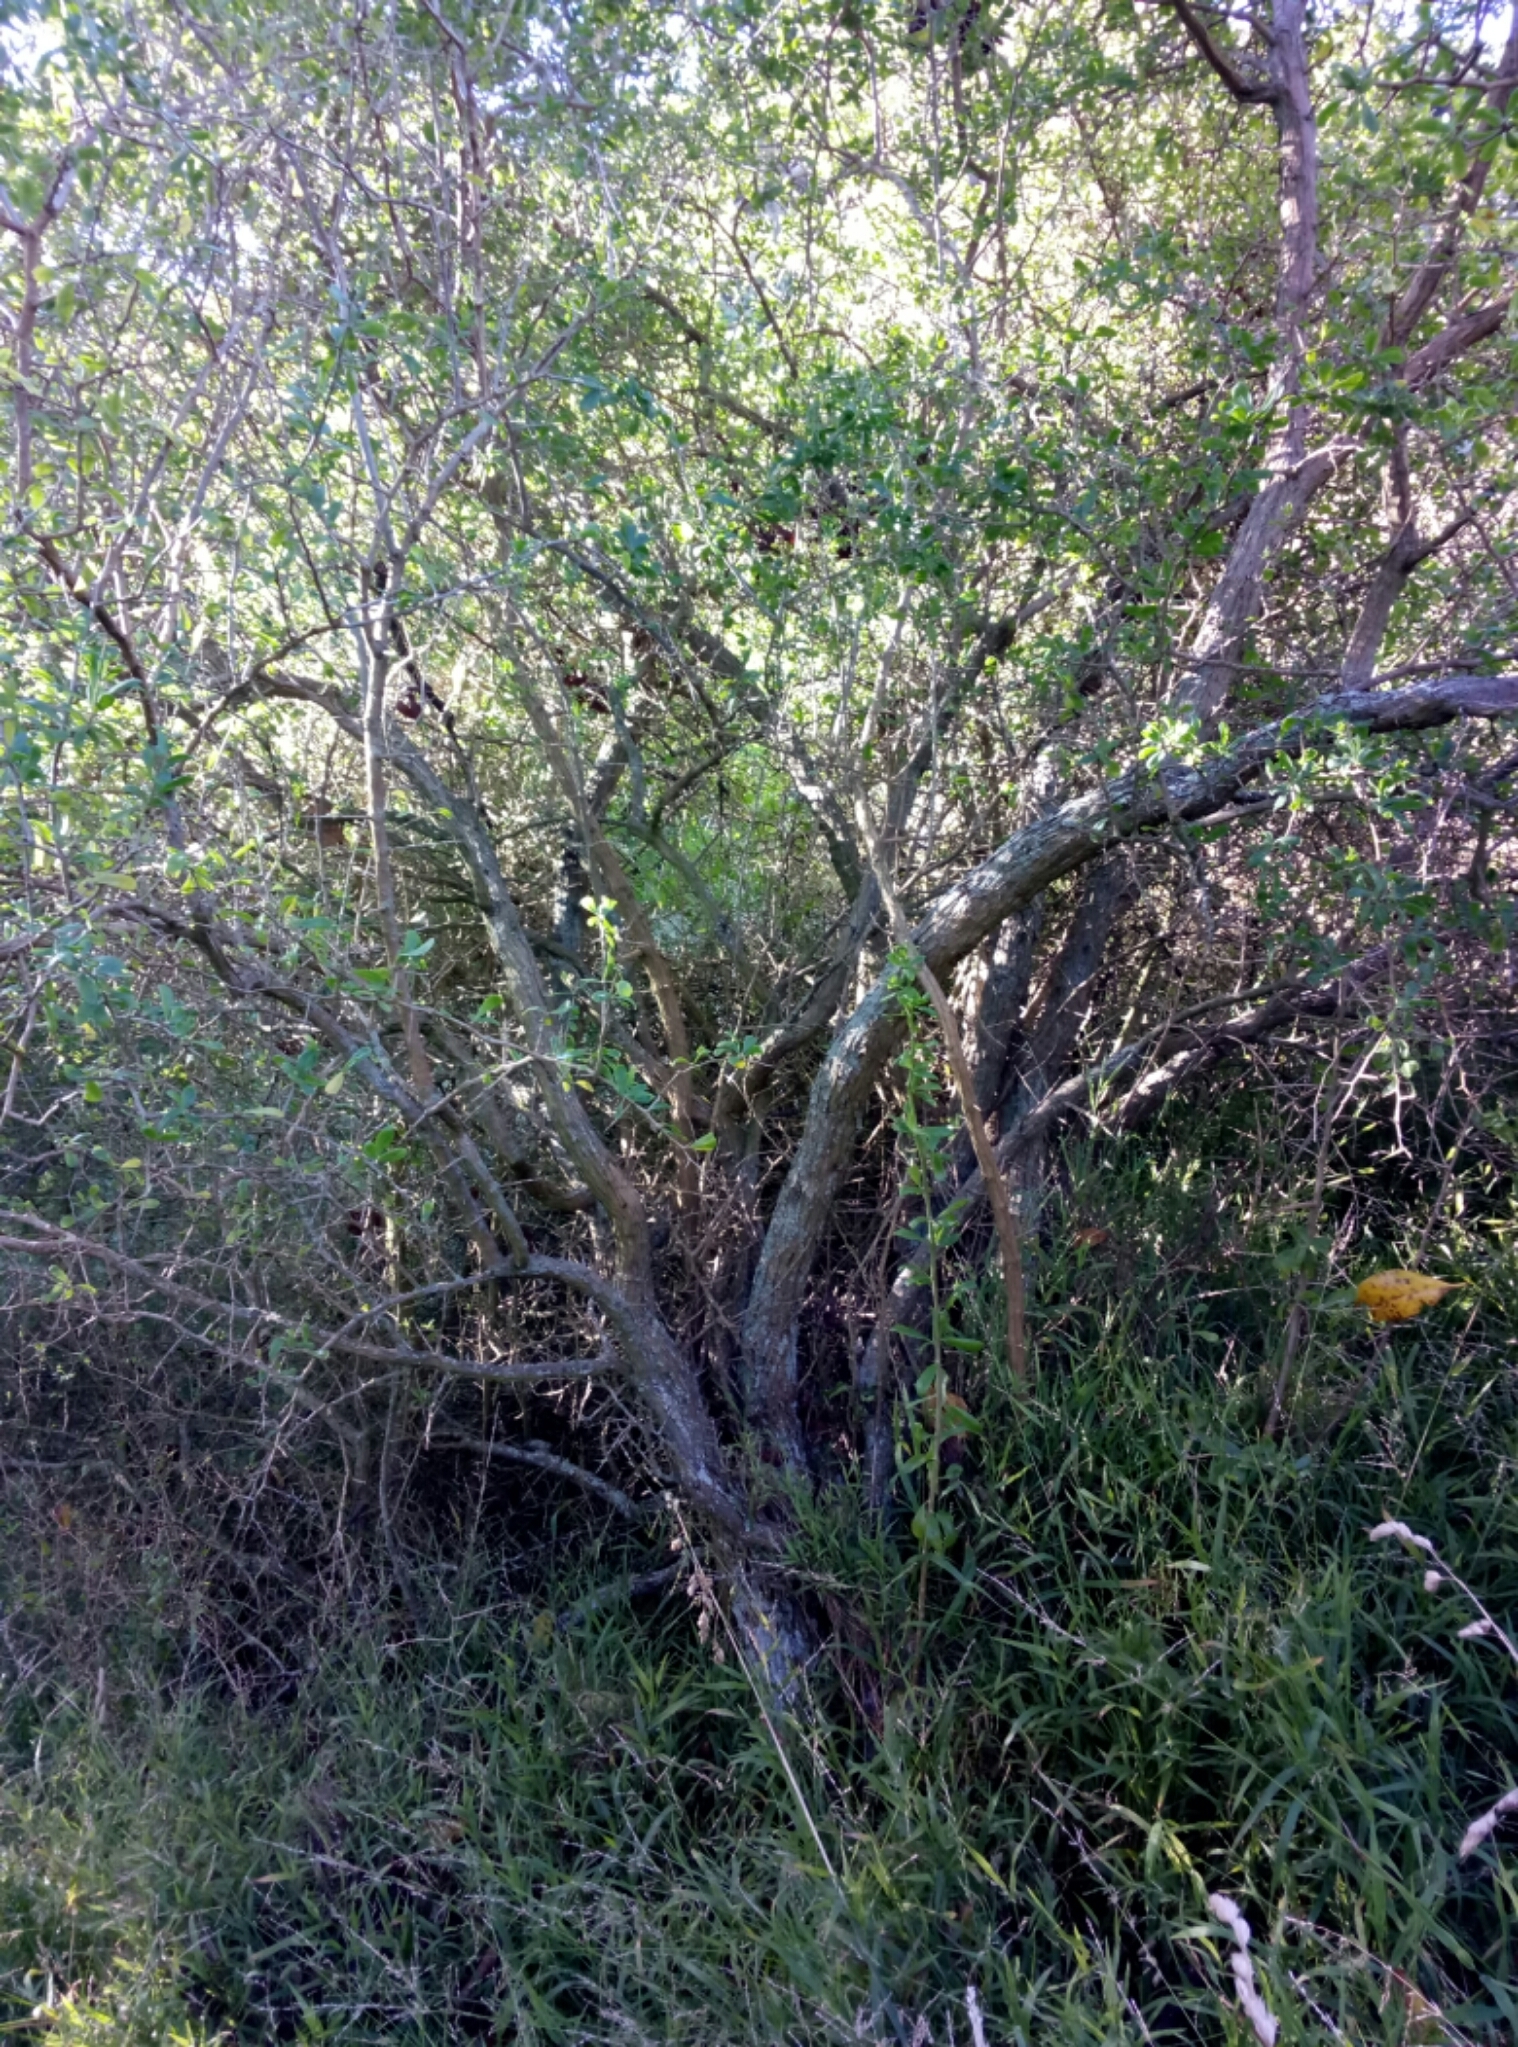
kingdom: Plantae
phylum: Tracheophyta
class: Magnoliopsida
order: Solanales
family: Solanaceae
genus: Lycium
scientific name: Lycium ferocissimum
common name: African boxthorn
